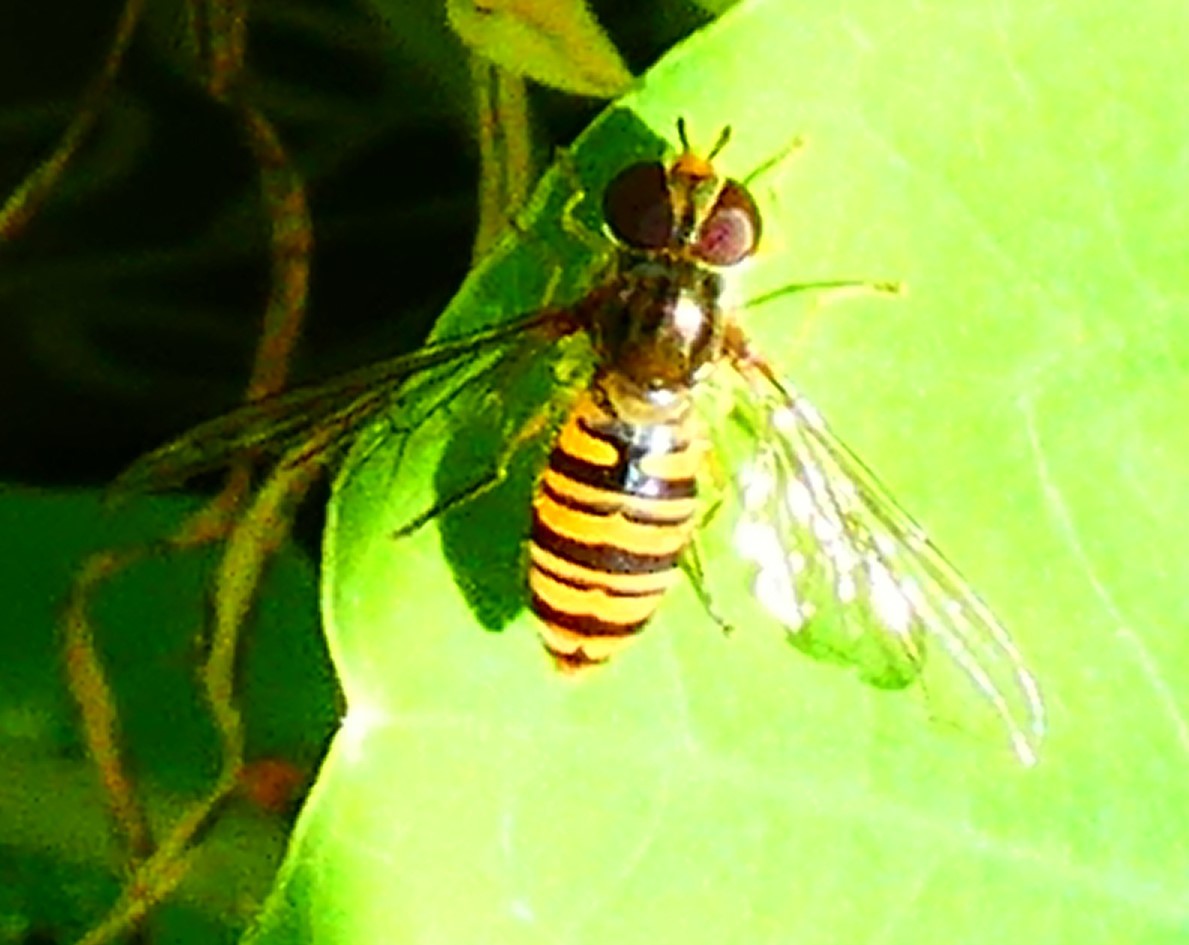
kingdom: Animalia
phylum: Arthropoda
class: Insecta
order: Diptera
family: Syrphidae
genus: Episyrphus
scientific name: Episyrphus balteatus
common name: Marmalade hoverfly
